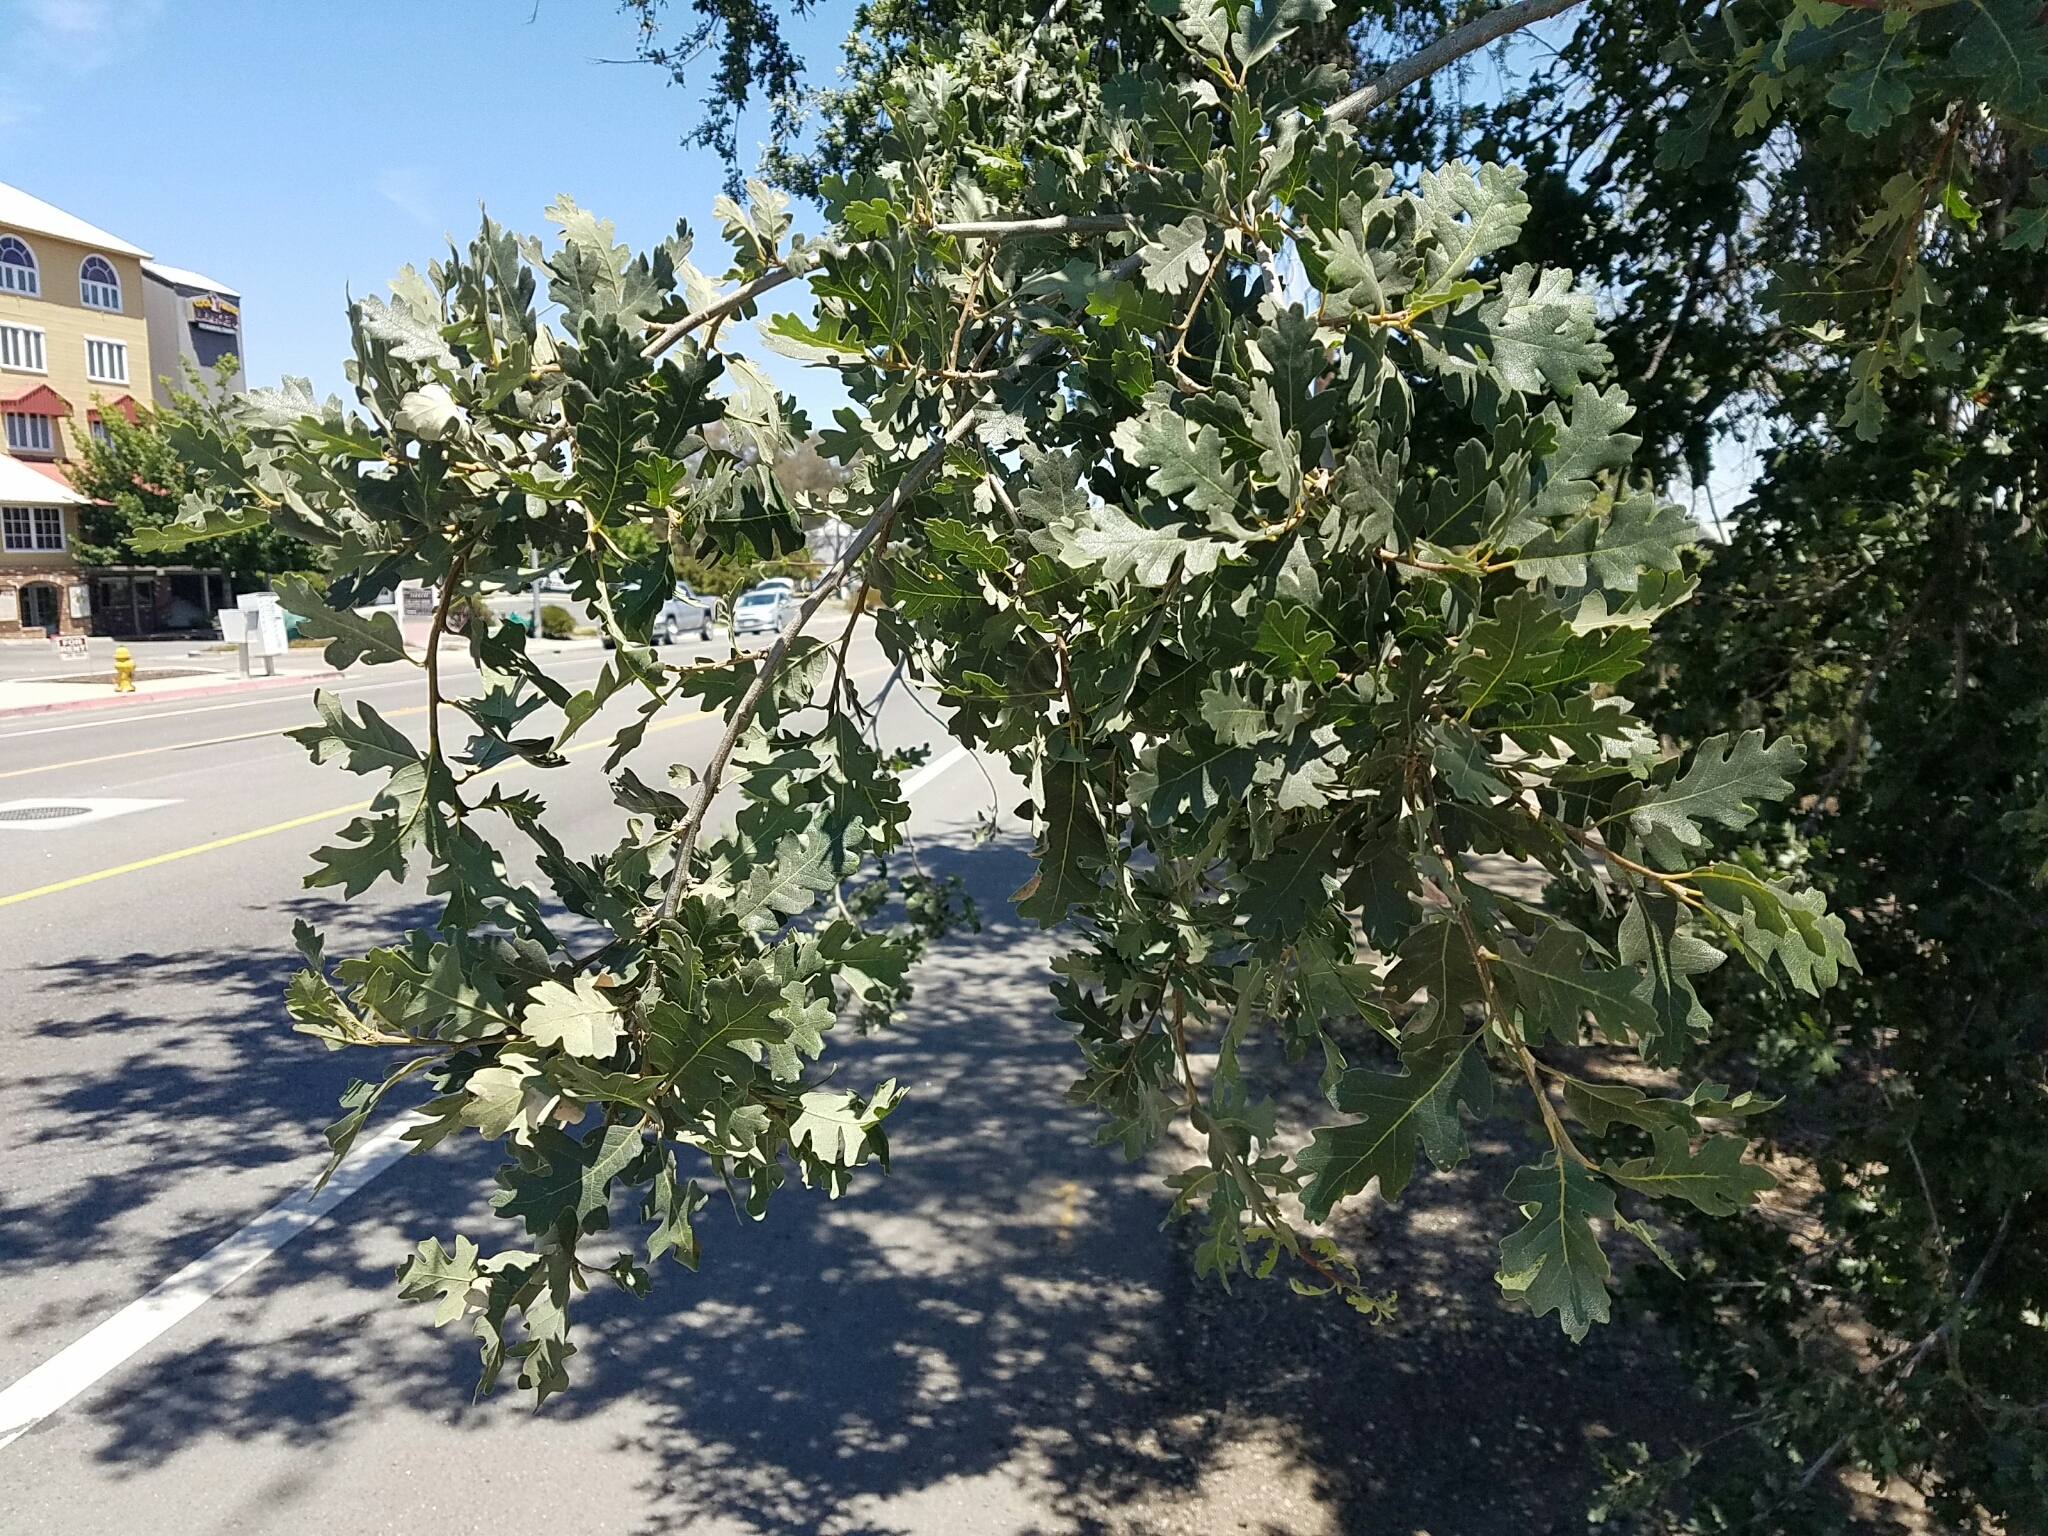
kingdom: Plantae
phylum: Tracheophyta
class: Magnoliopsida
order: Fagales
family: Fagaceae
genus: Quercus
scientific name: Quercus lobata
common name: Valley oak
